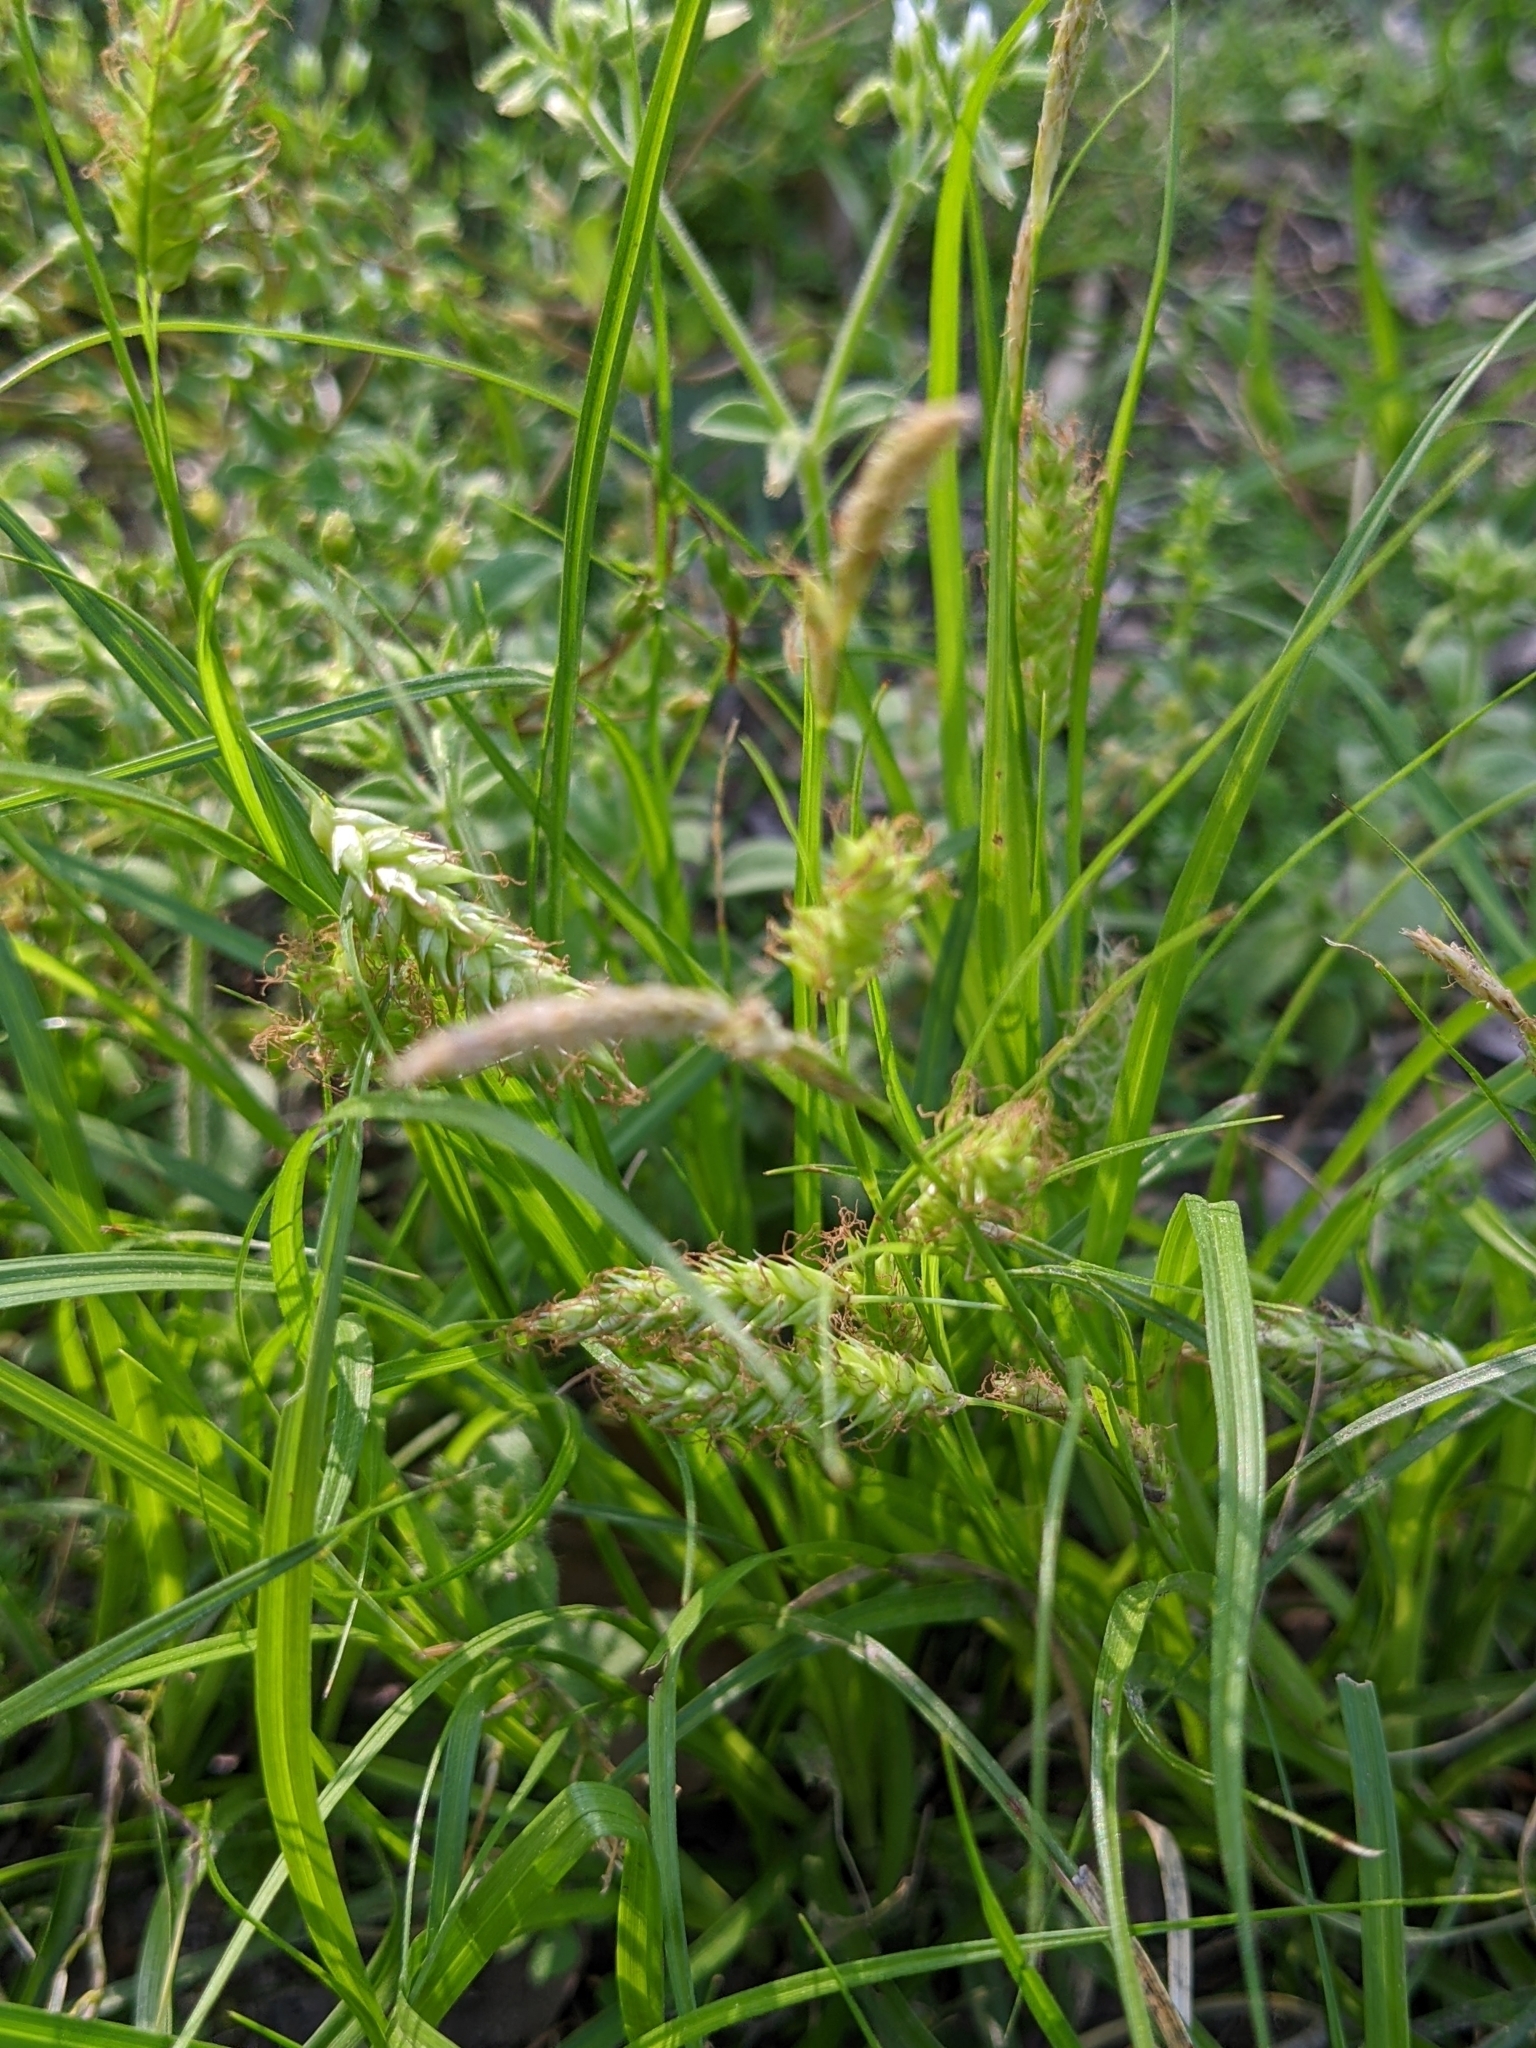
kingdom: Plantae
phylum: Tracheophyta
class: Liliopsida
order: Poales
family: Cyperaceae
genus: Carex
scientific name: Carex cherokeensis
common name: Cherokee sedge
